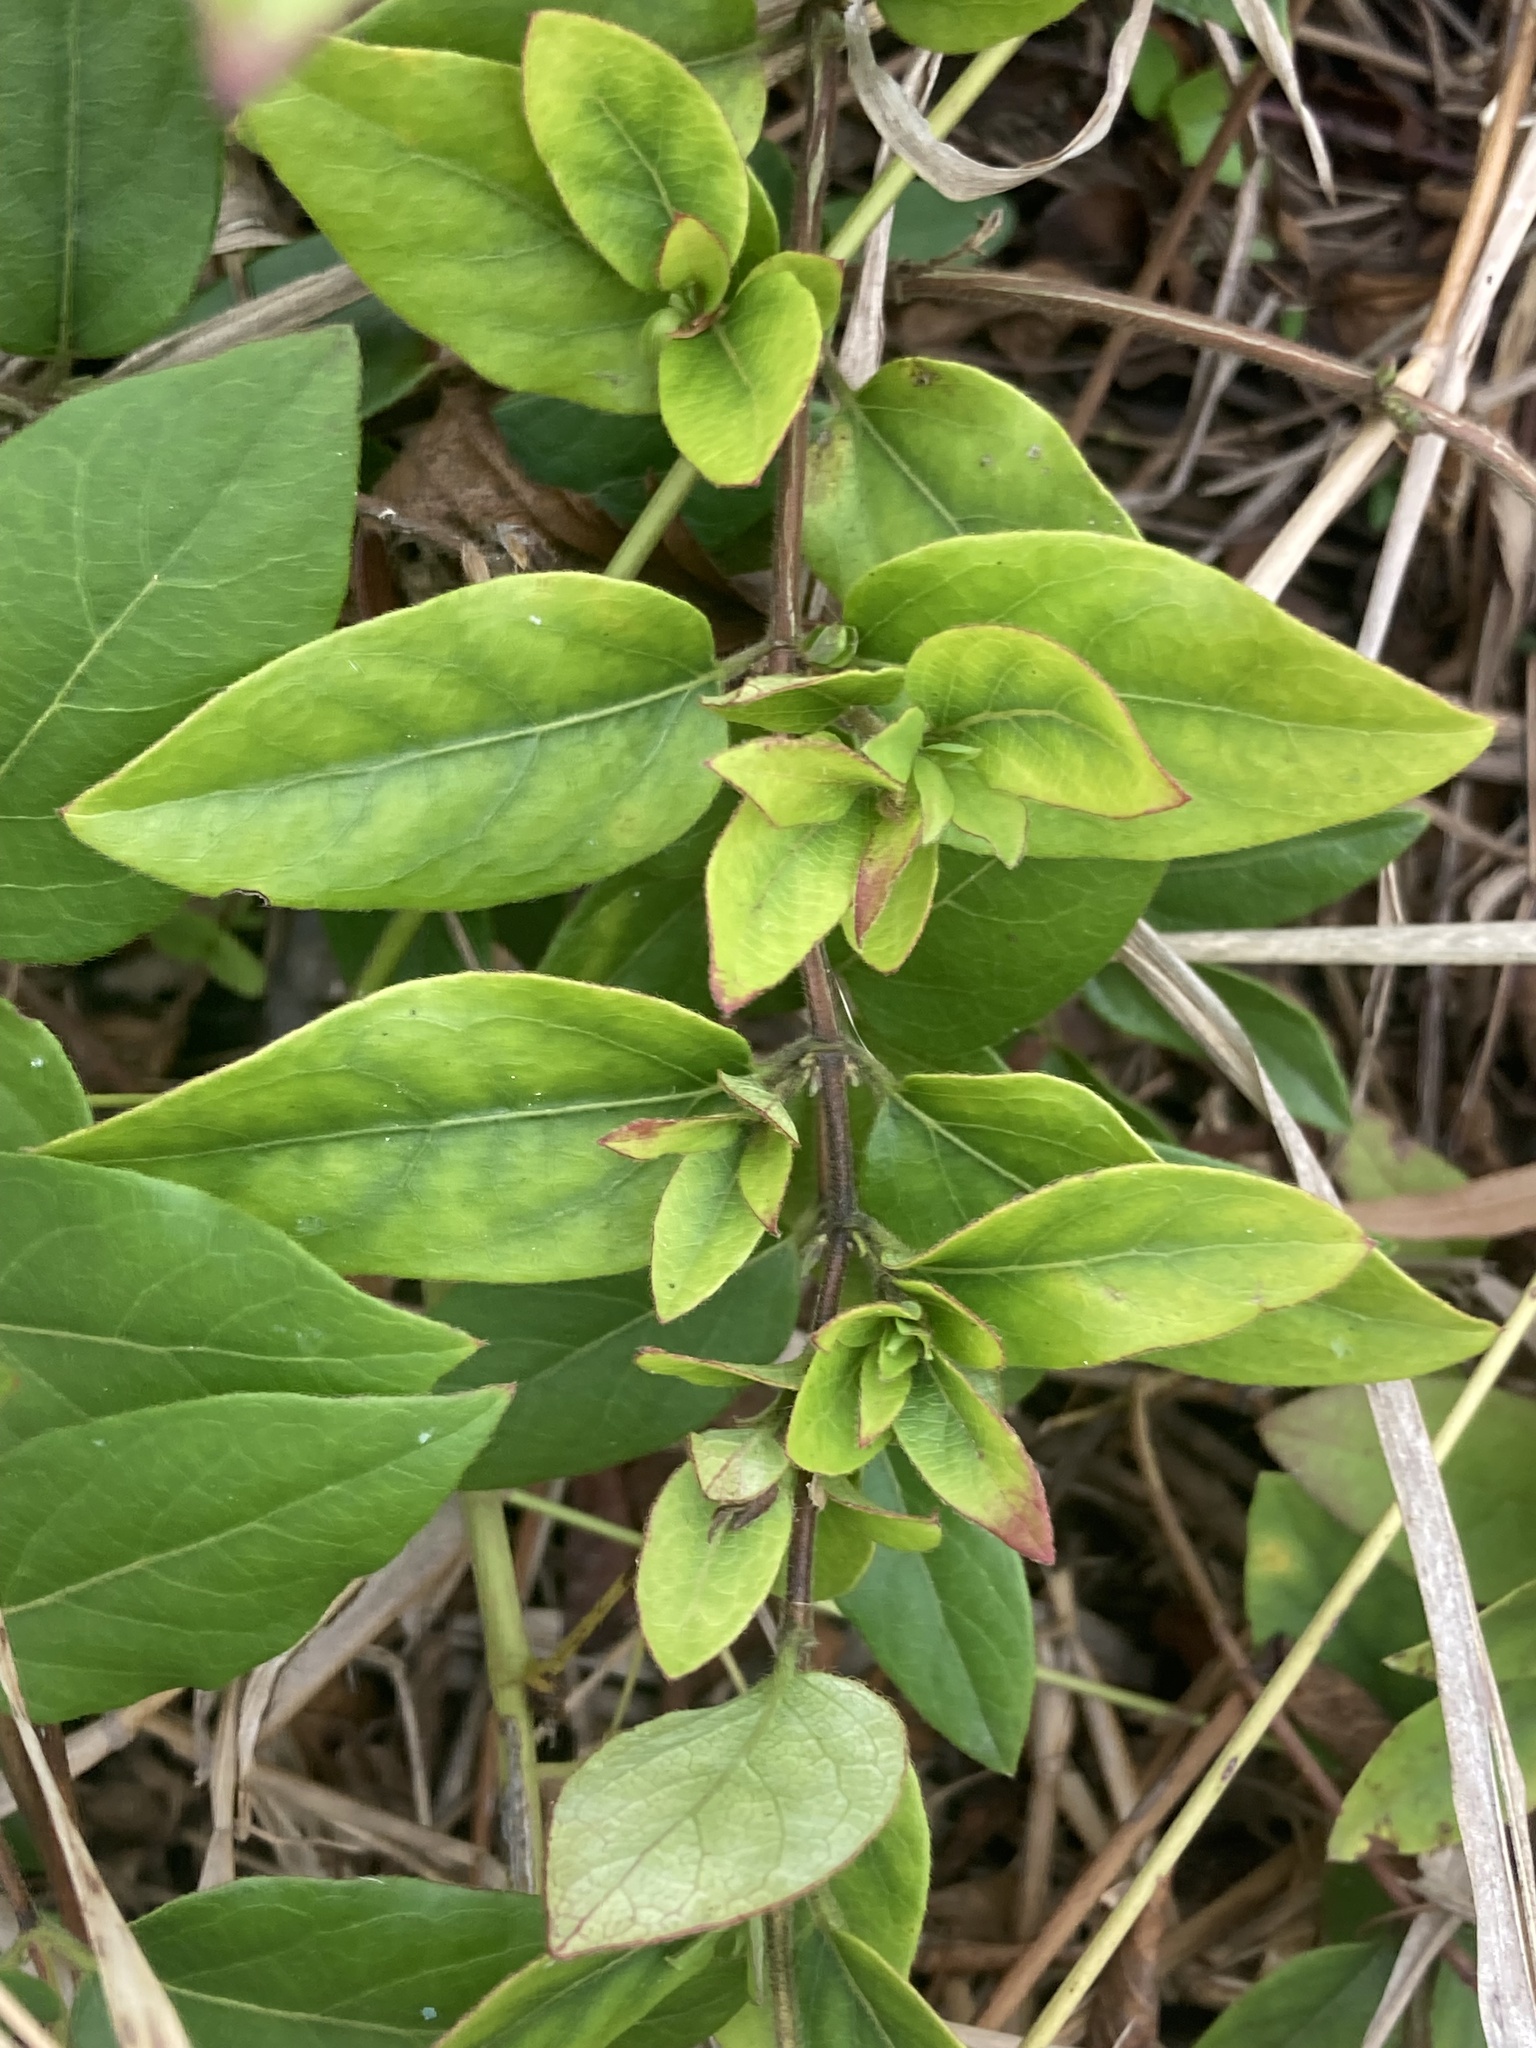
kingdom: Plantae
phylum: Tracheophyta
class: Magnoliopsida
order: Dipsacales
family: Caprifoliaceae
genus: Lonicera
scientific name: Lonicera japonica
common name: Japanese honeysuckle
